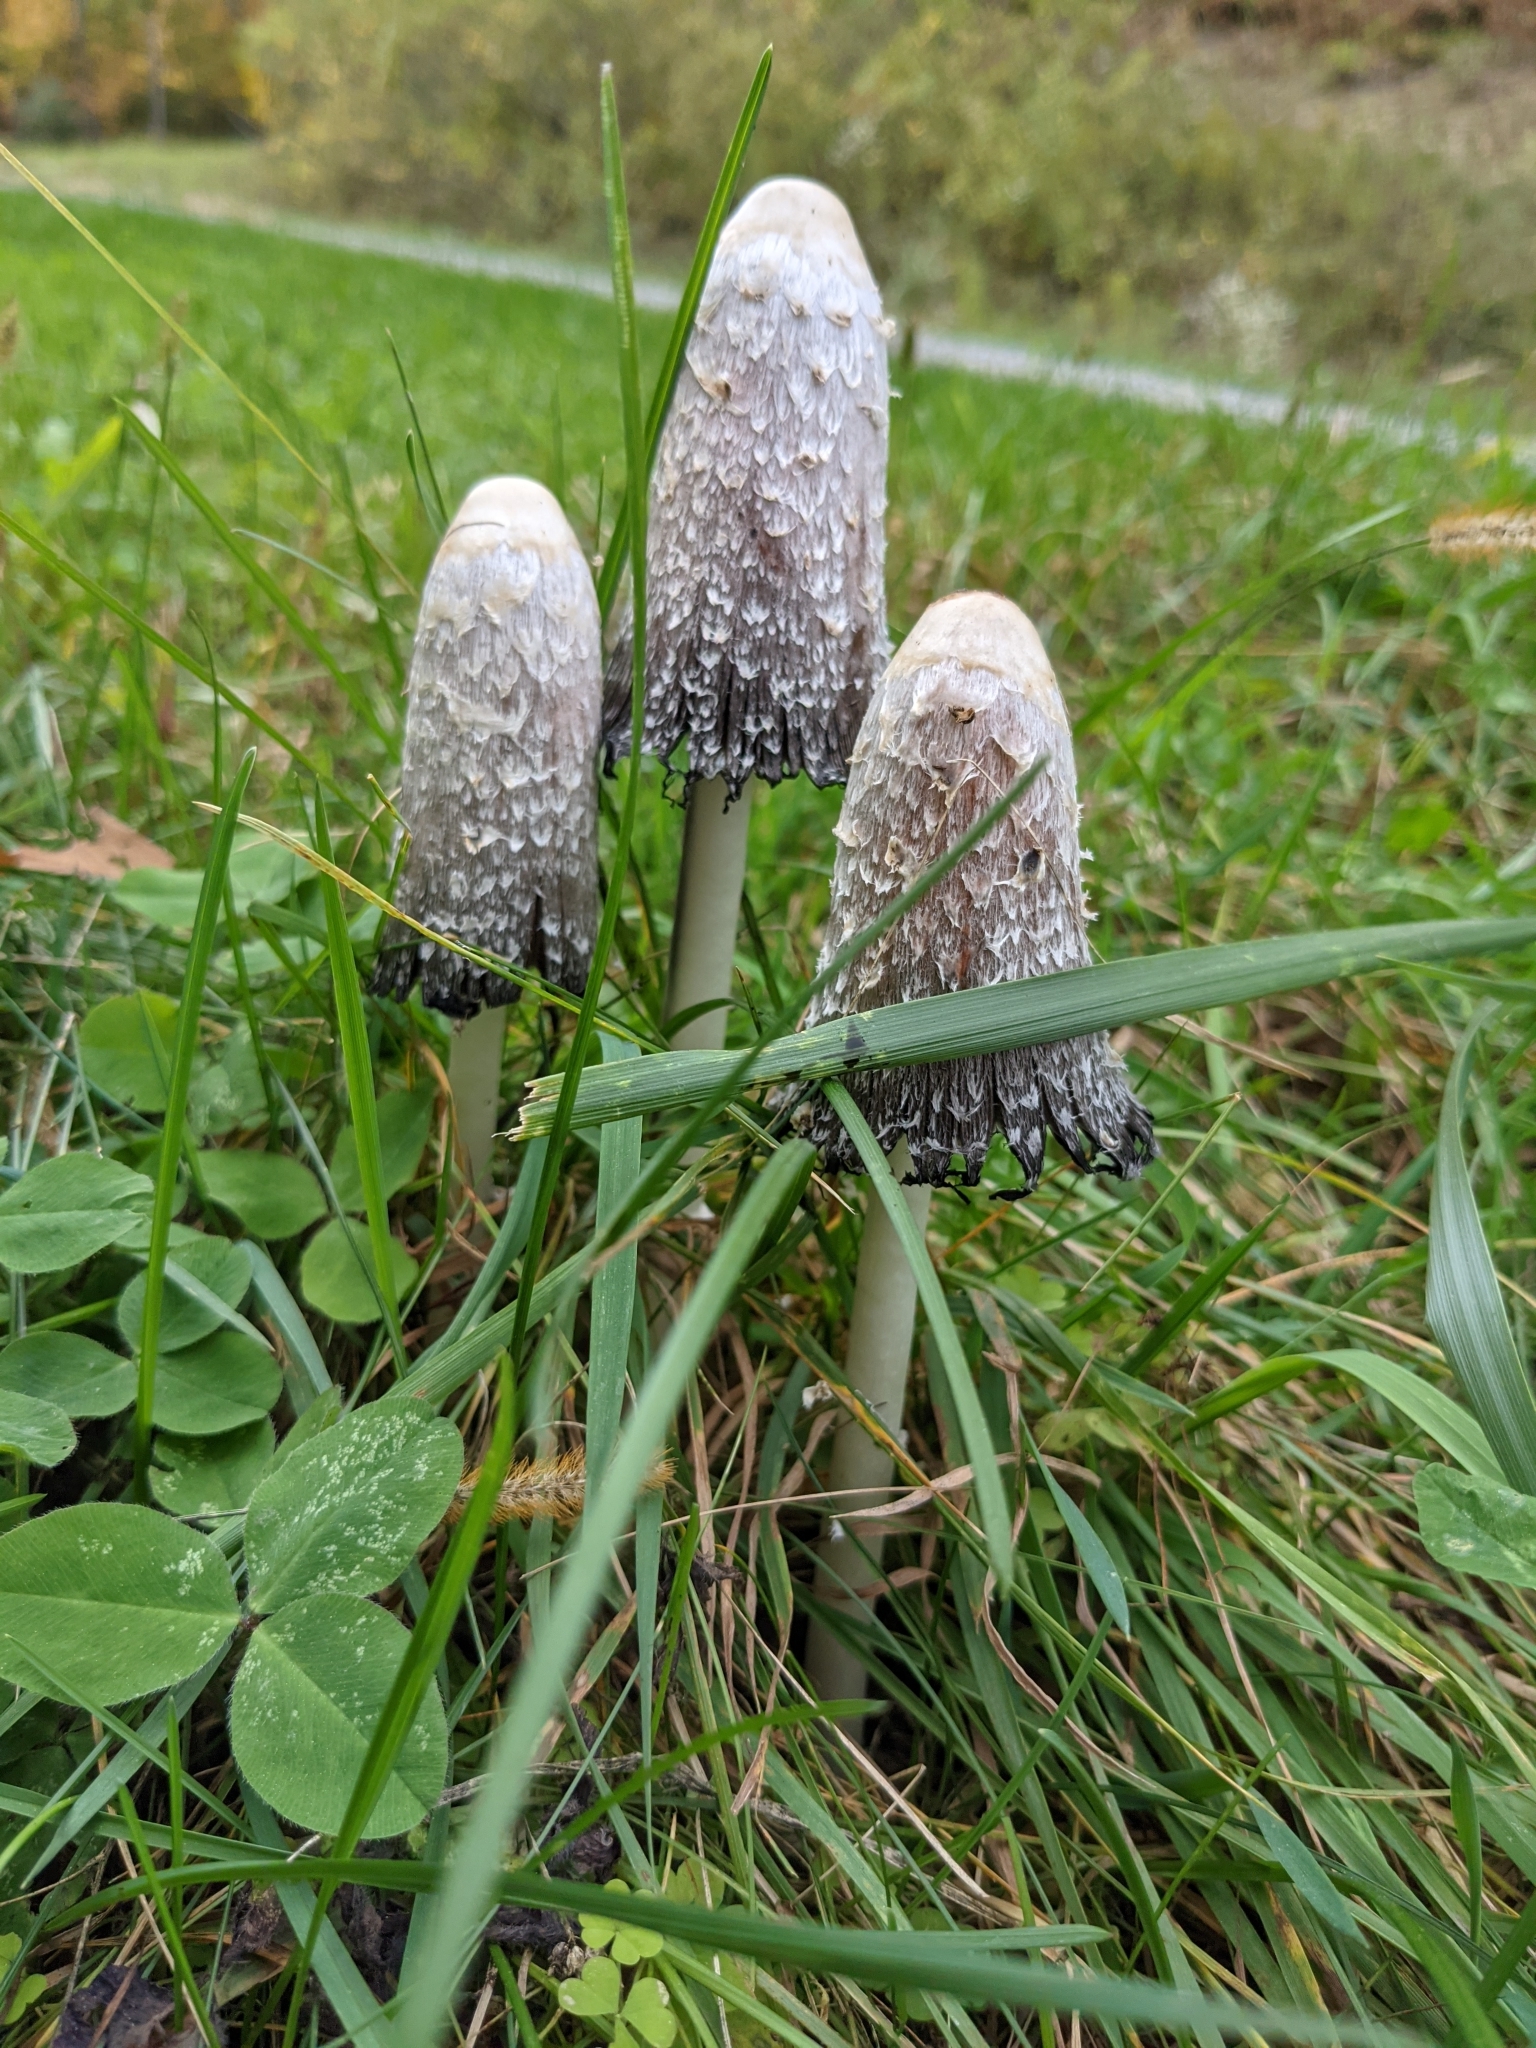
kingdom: Fungi
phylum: Basidiomycota
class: Agaricomycetes
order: Agaricales
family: Agaricaceae
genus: Coprinus
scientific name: Coprinus comatus
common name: Lawyer's wig
